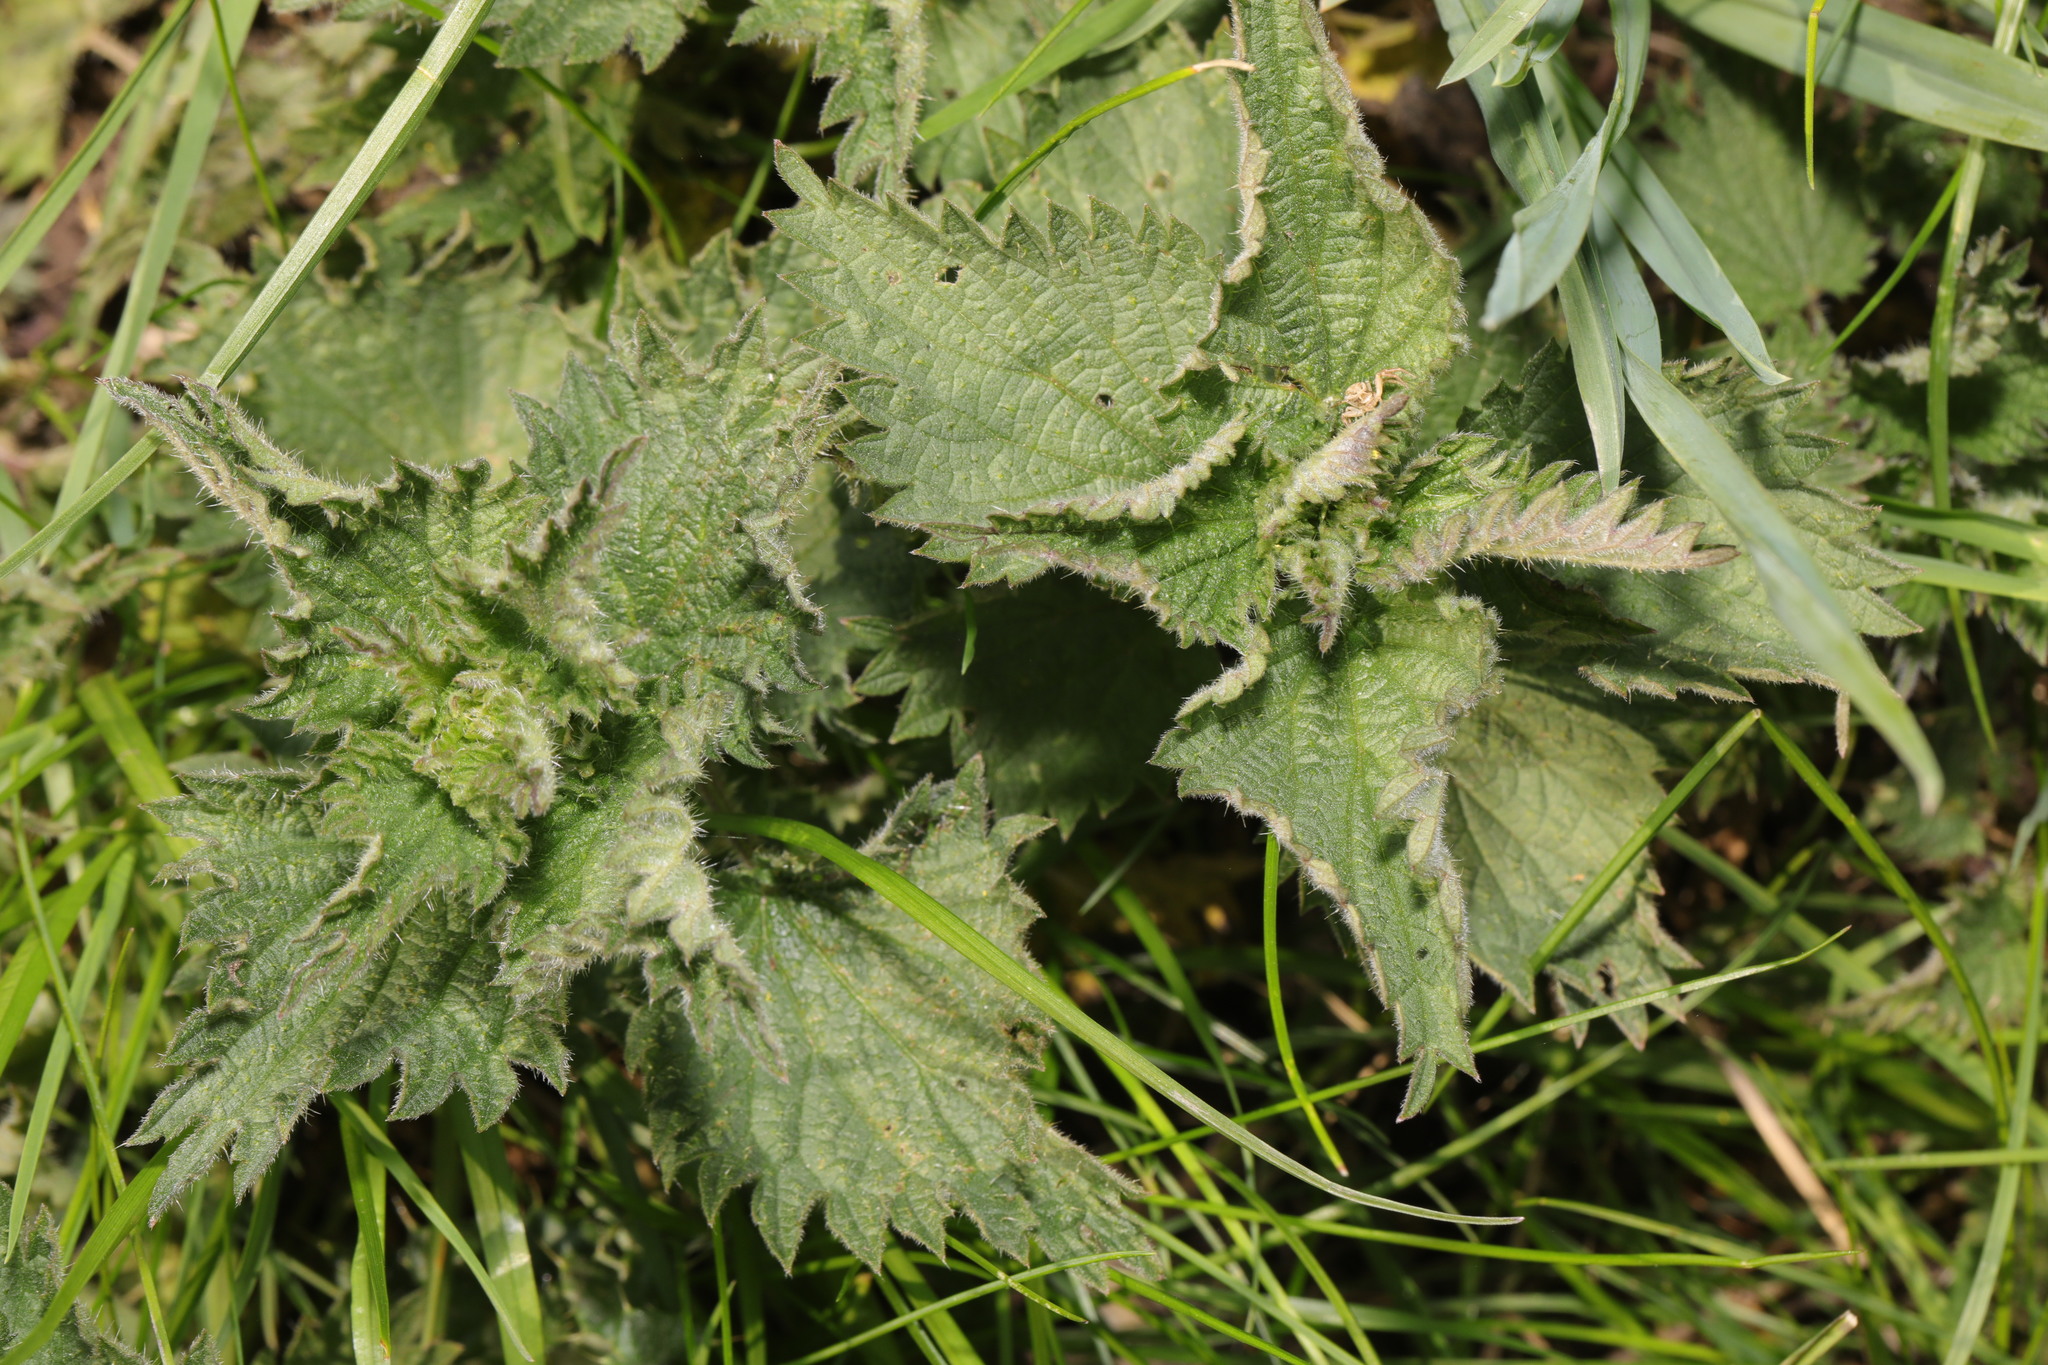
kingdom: Plantae
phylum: Tracheophyta
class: Magnoliopsida
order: Rosales
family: Urticaceae
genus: Urtica
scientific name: Urtica dioica
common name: Common nettle
